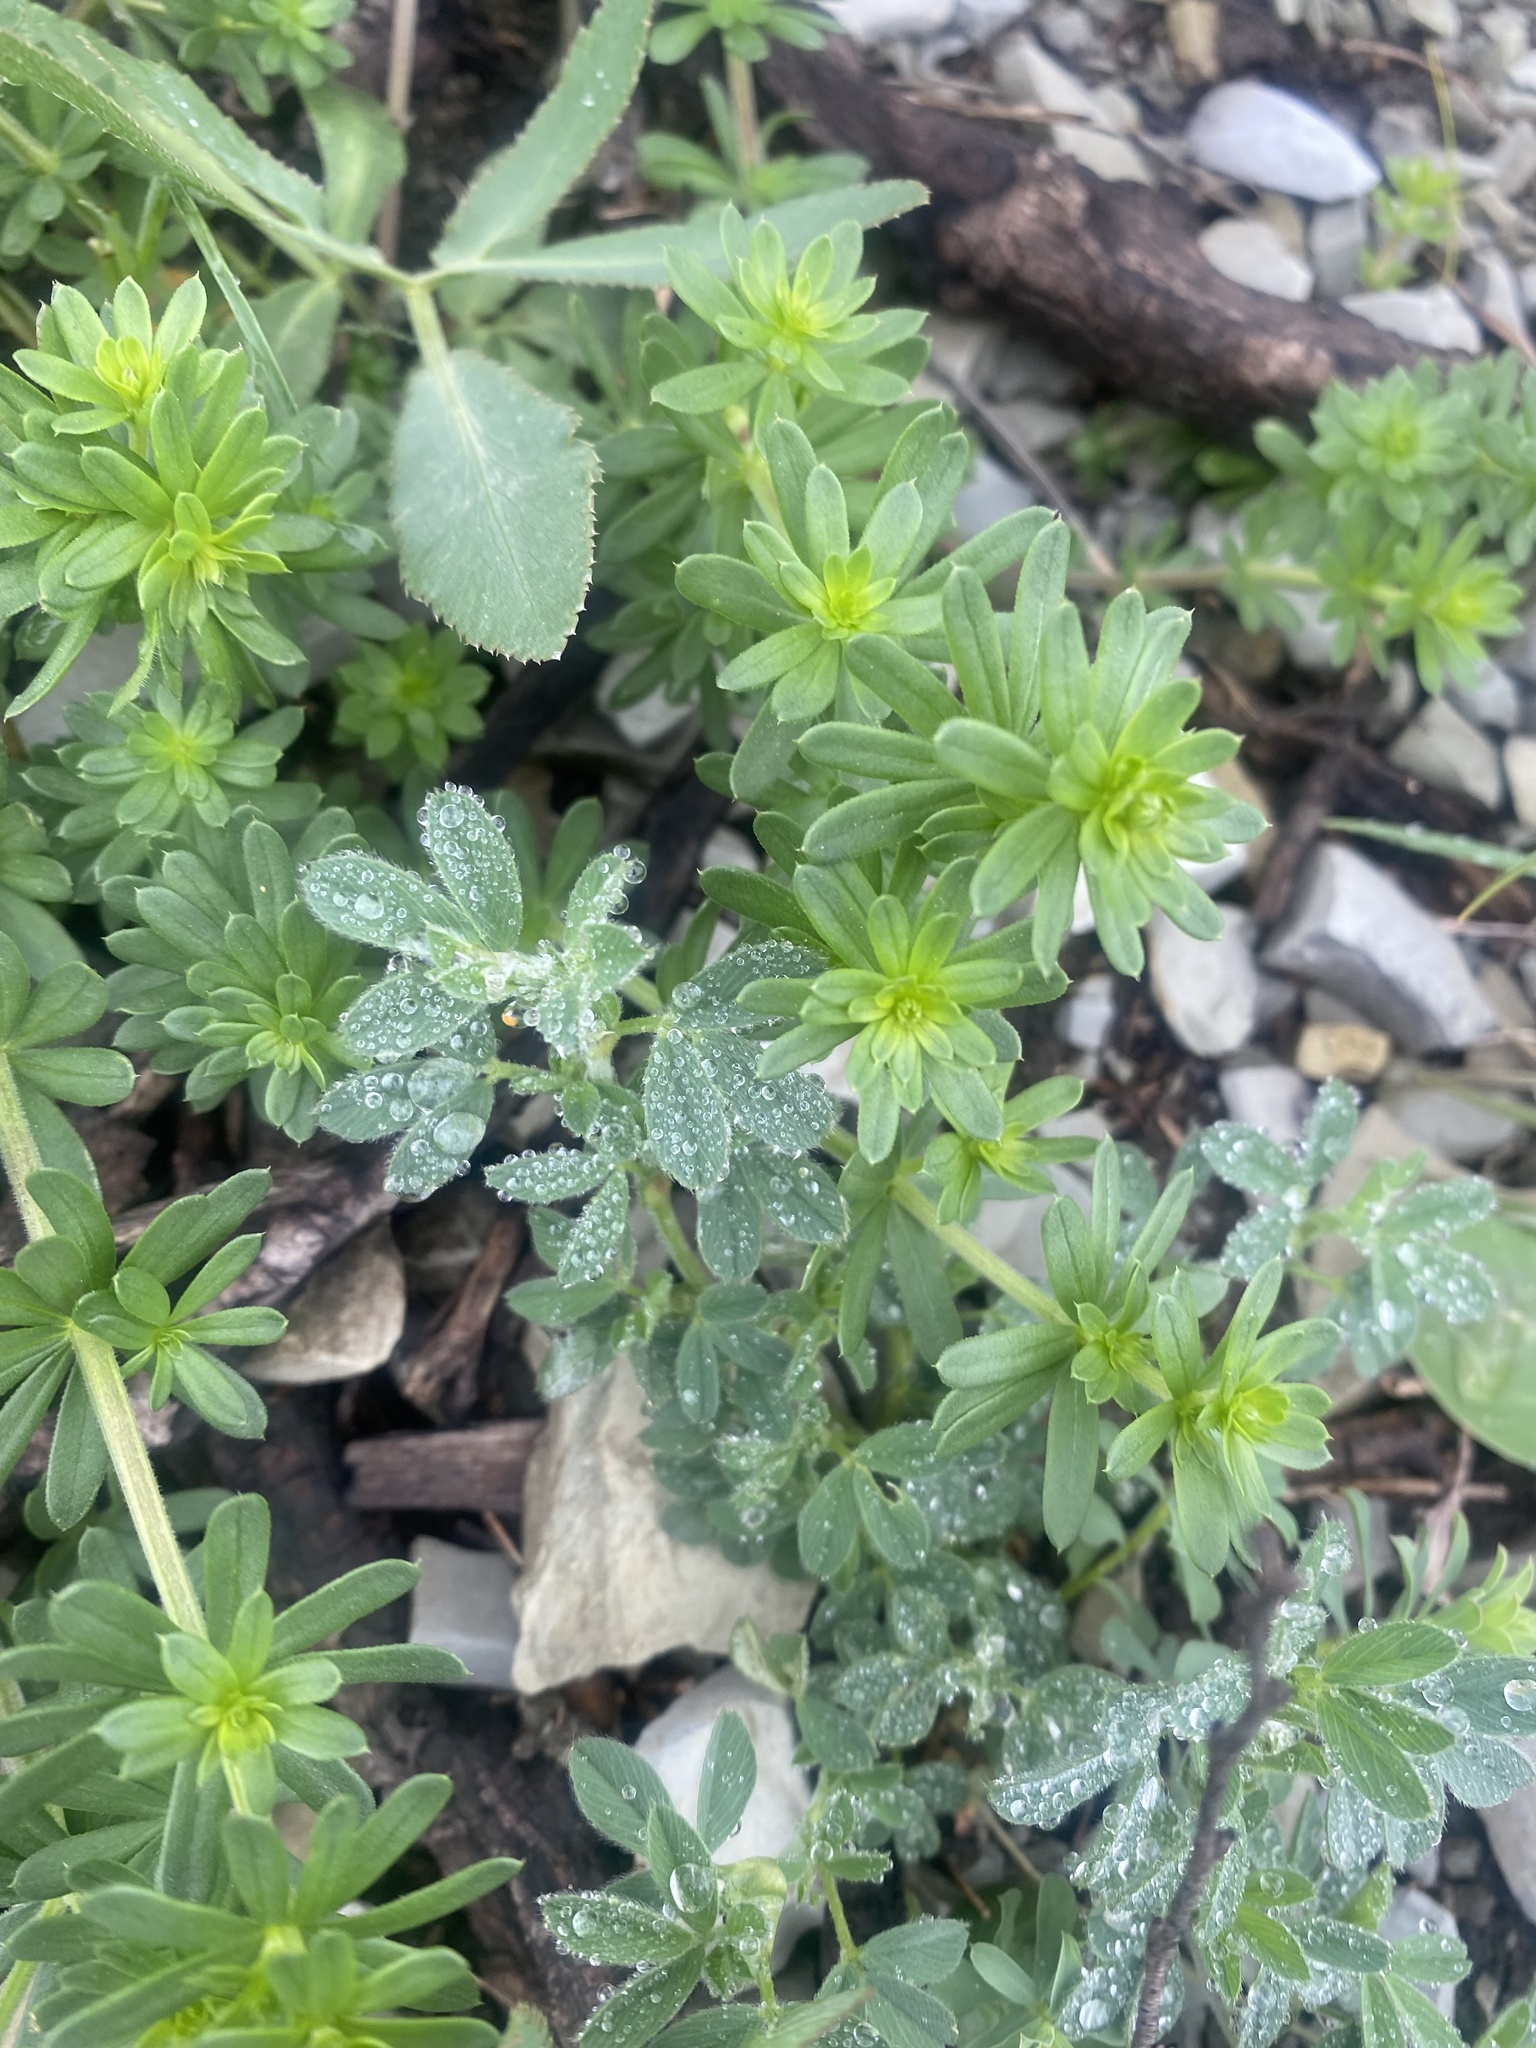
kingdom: Plantae
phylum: Tracheophyta
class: Magnoliopsida
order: Gentianales
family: Rubiaceae
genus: Galium
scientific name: Galium mollugo
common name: Hedge bedstraw
